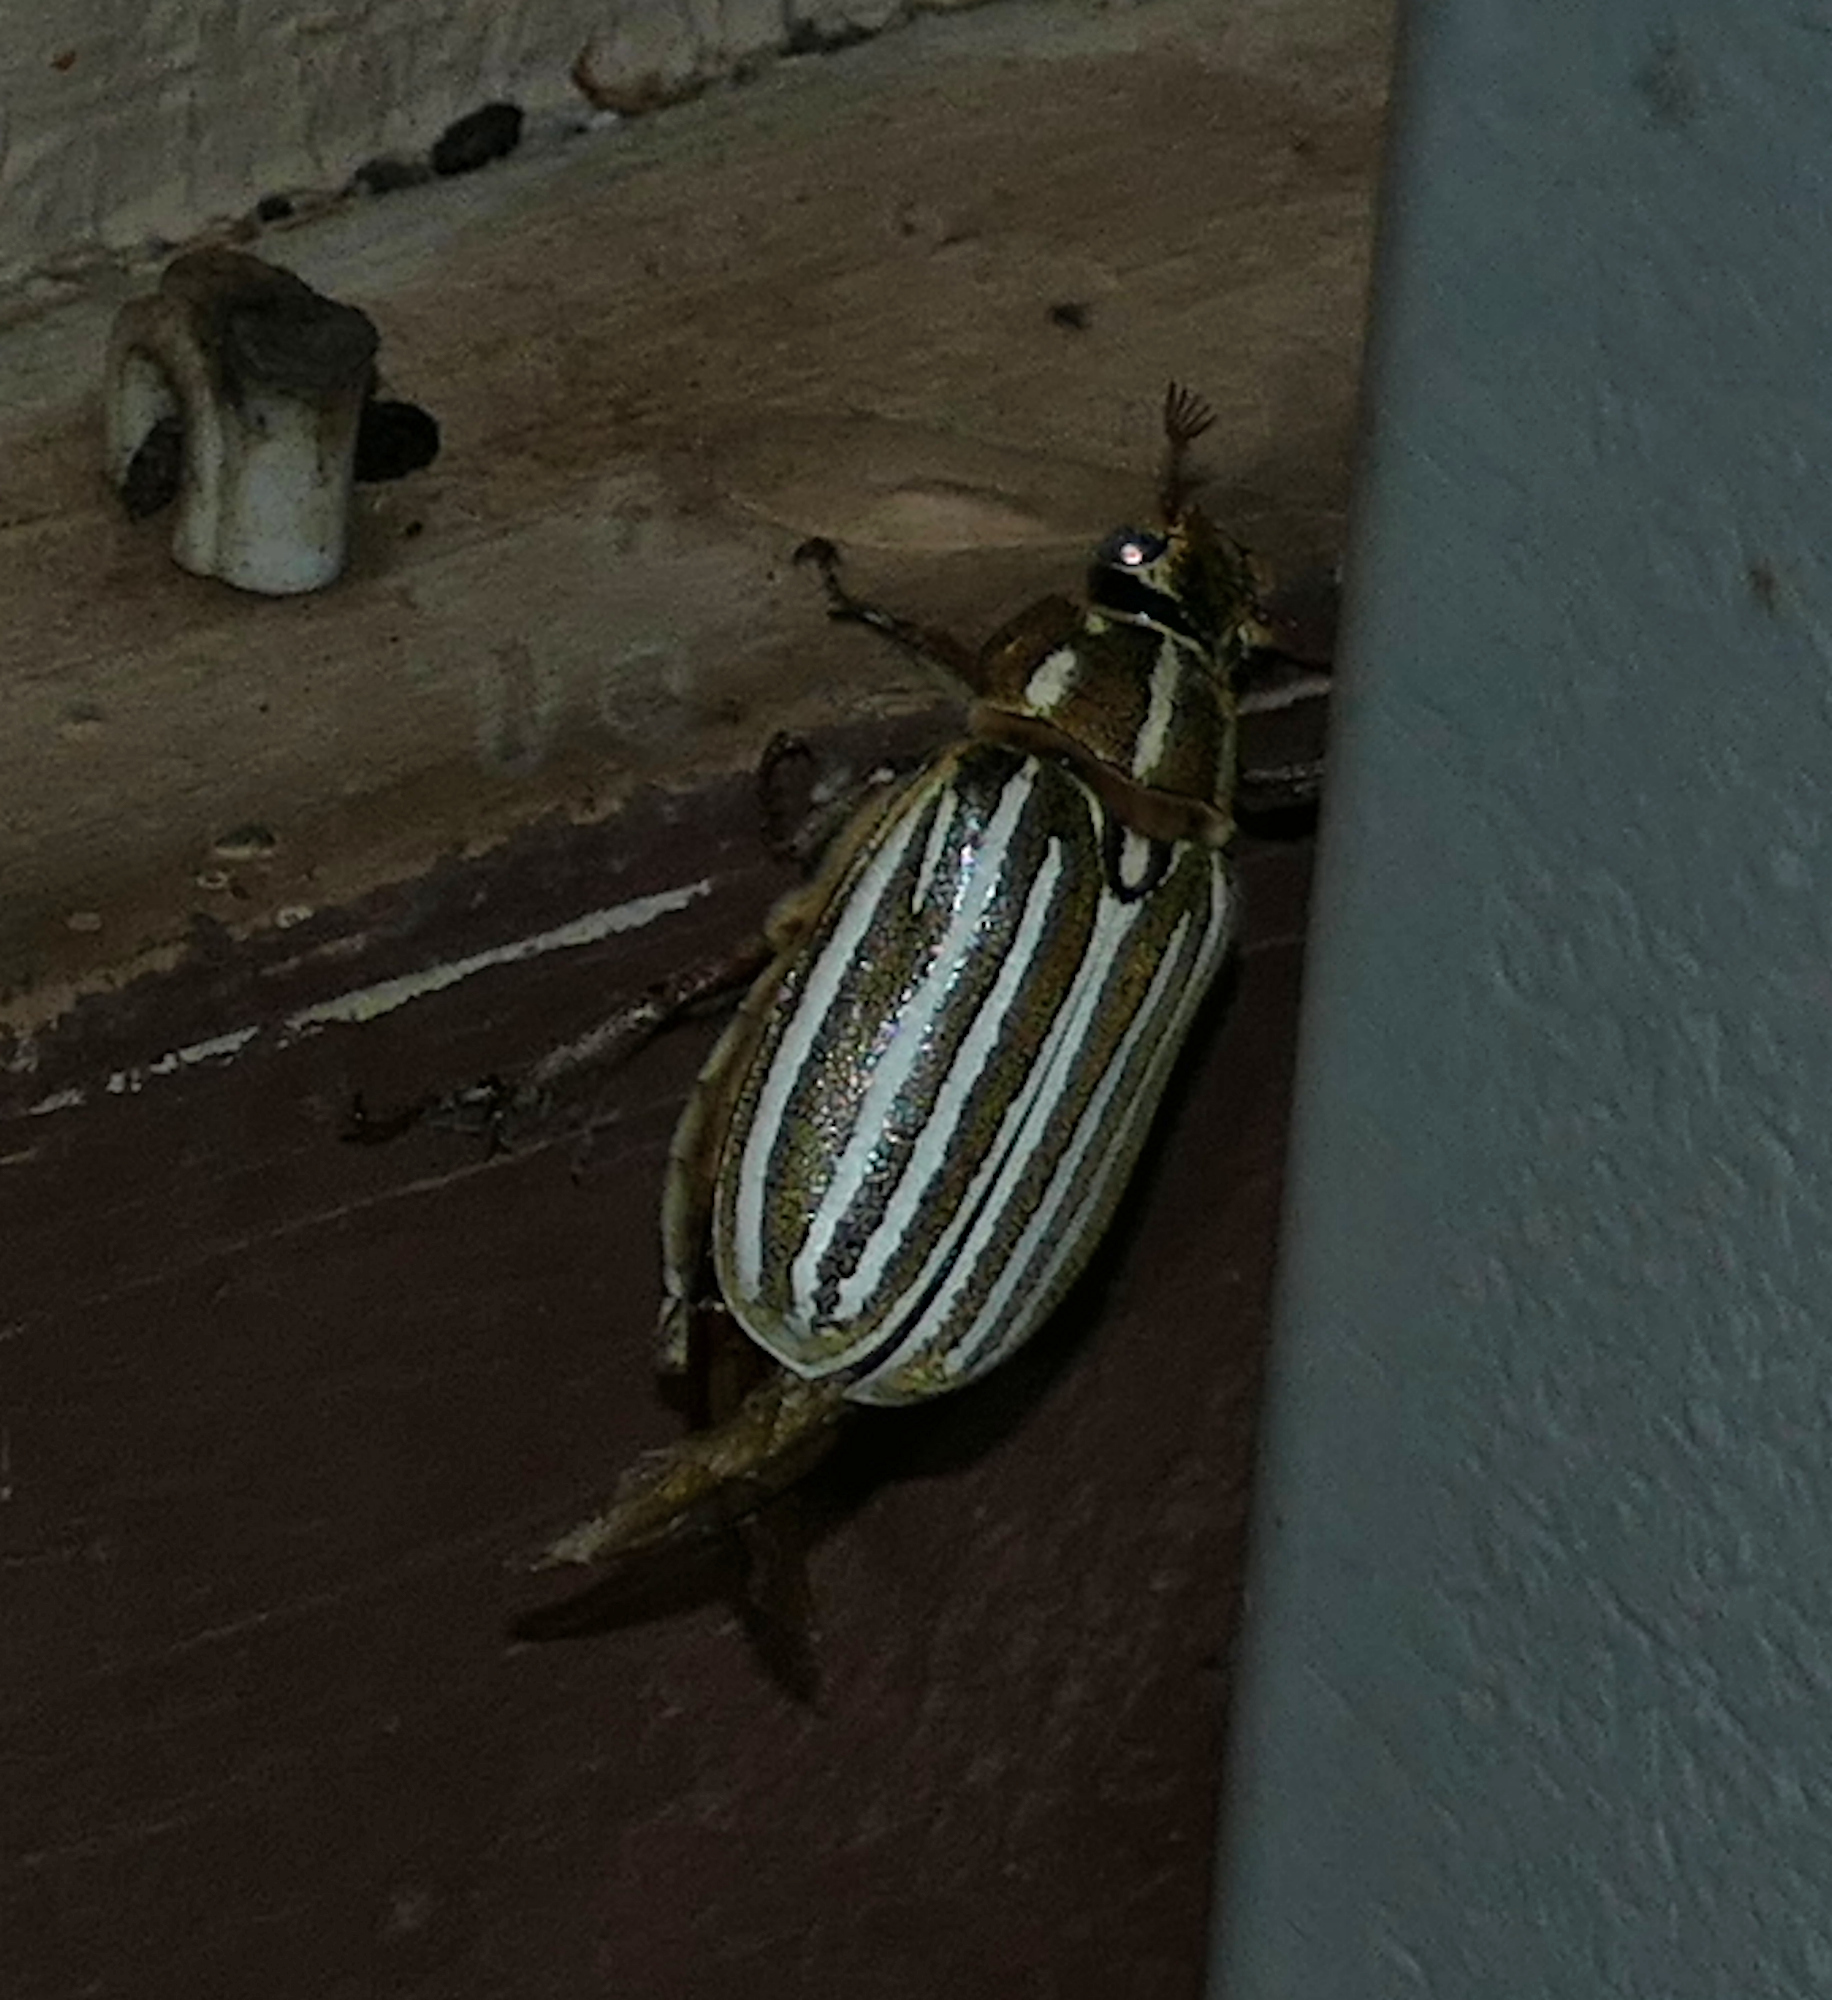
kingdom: Animalia
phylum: Arthropoda
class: Insecta
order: Coleoptera
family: Scarabaeidae
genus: Polyphylla
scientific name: Polyphylla decemlineata
